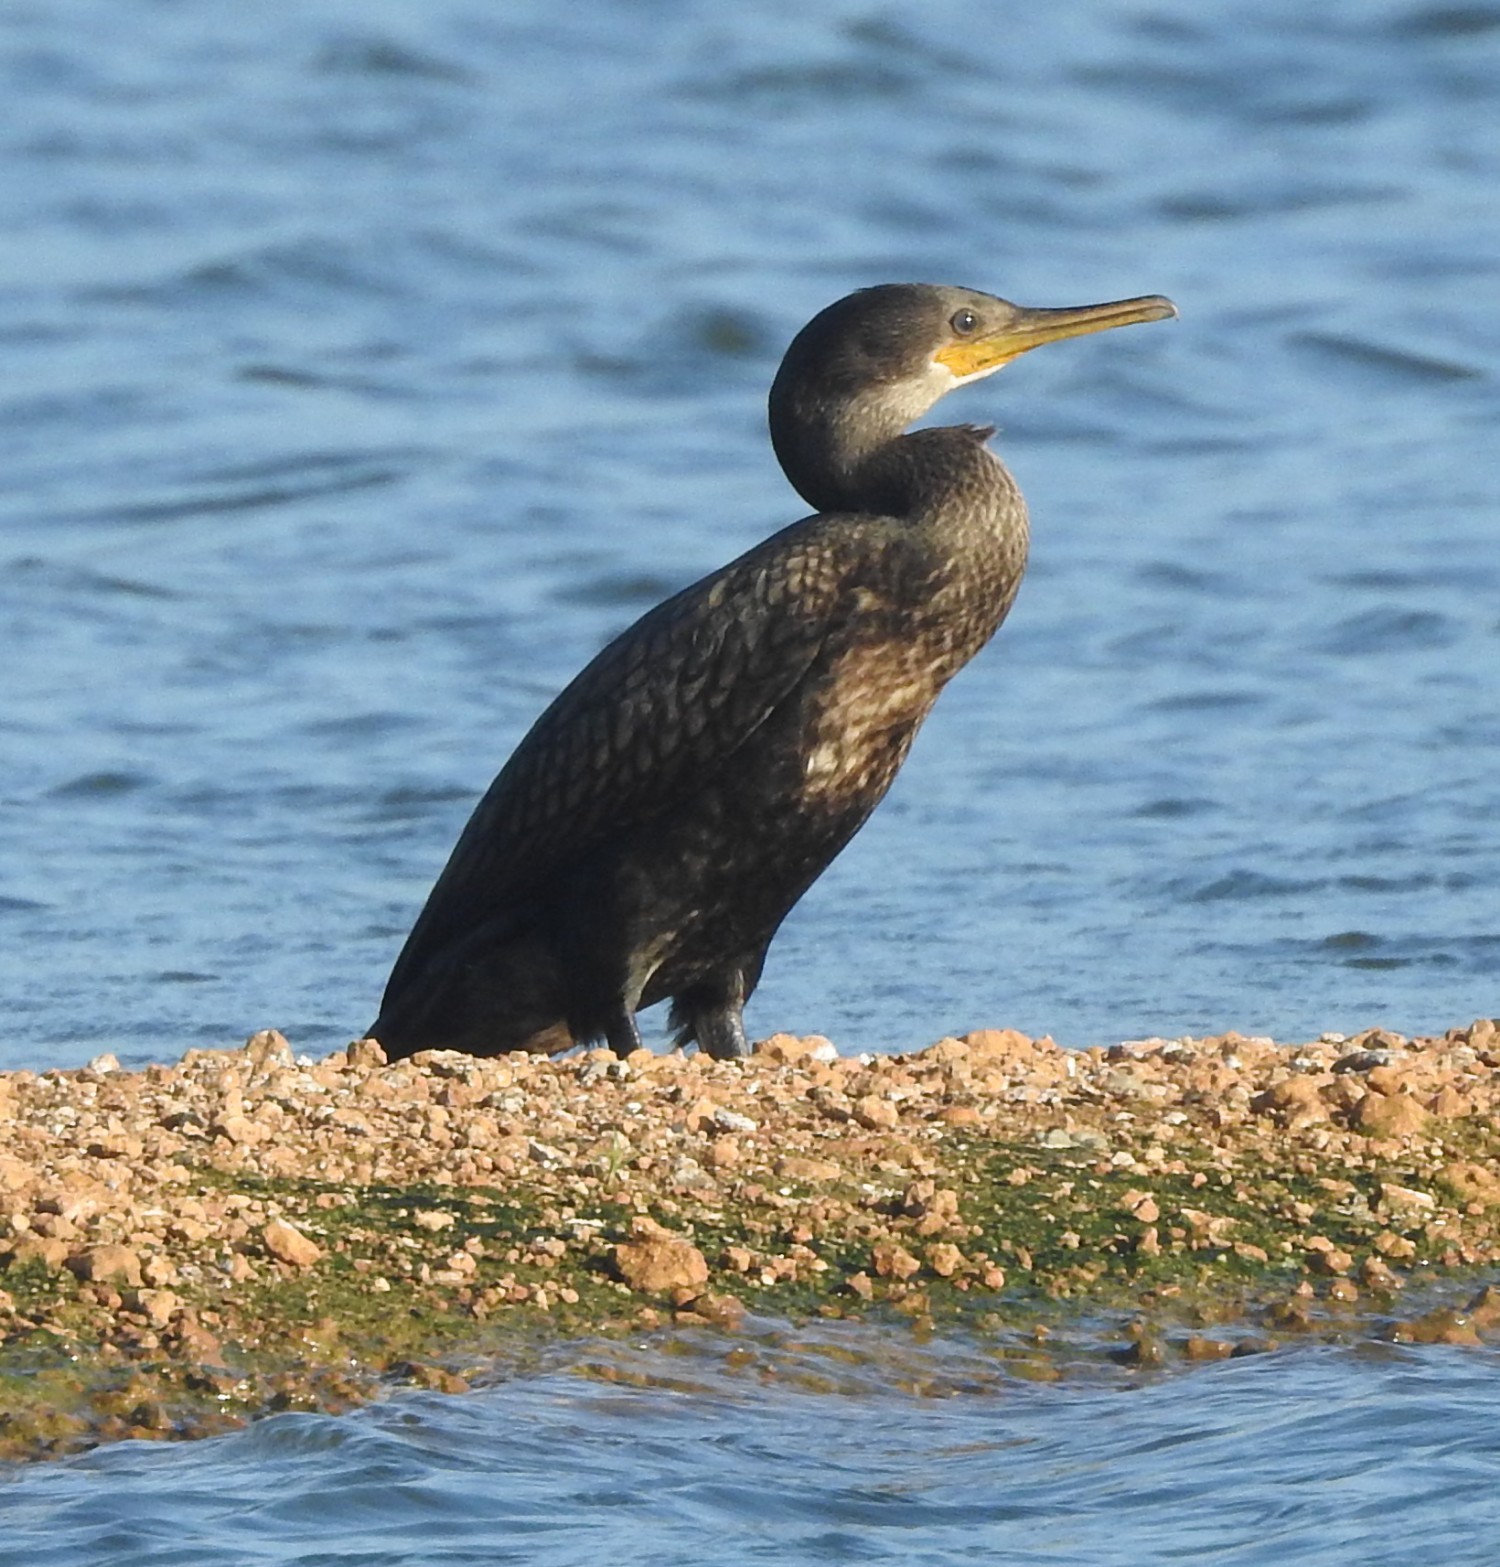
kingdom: Animalia
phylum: Chordata
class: Aves
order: Suliformes
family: Phalacrocoracidae
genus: Phalacrocorax
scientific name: Phalacrocorax fuscicollis
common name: Indian cormorant
